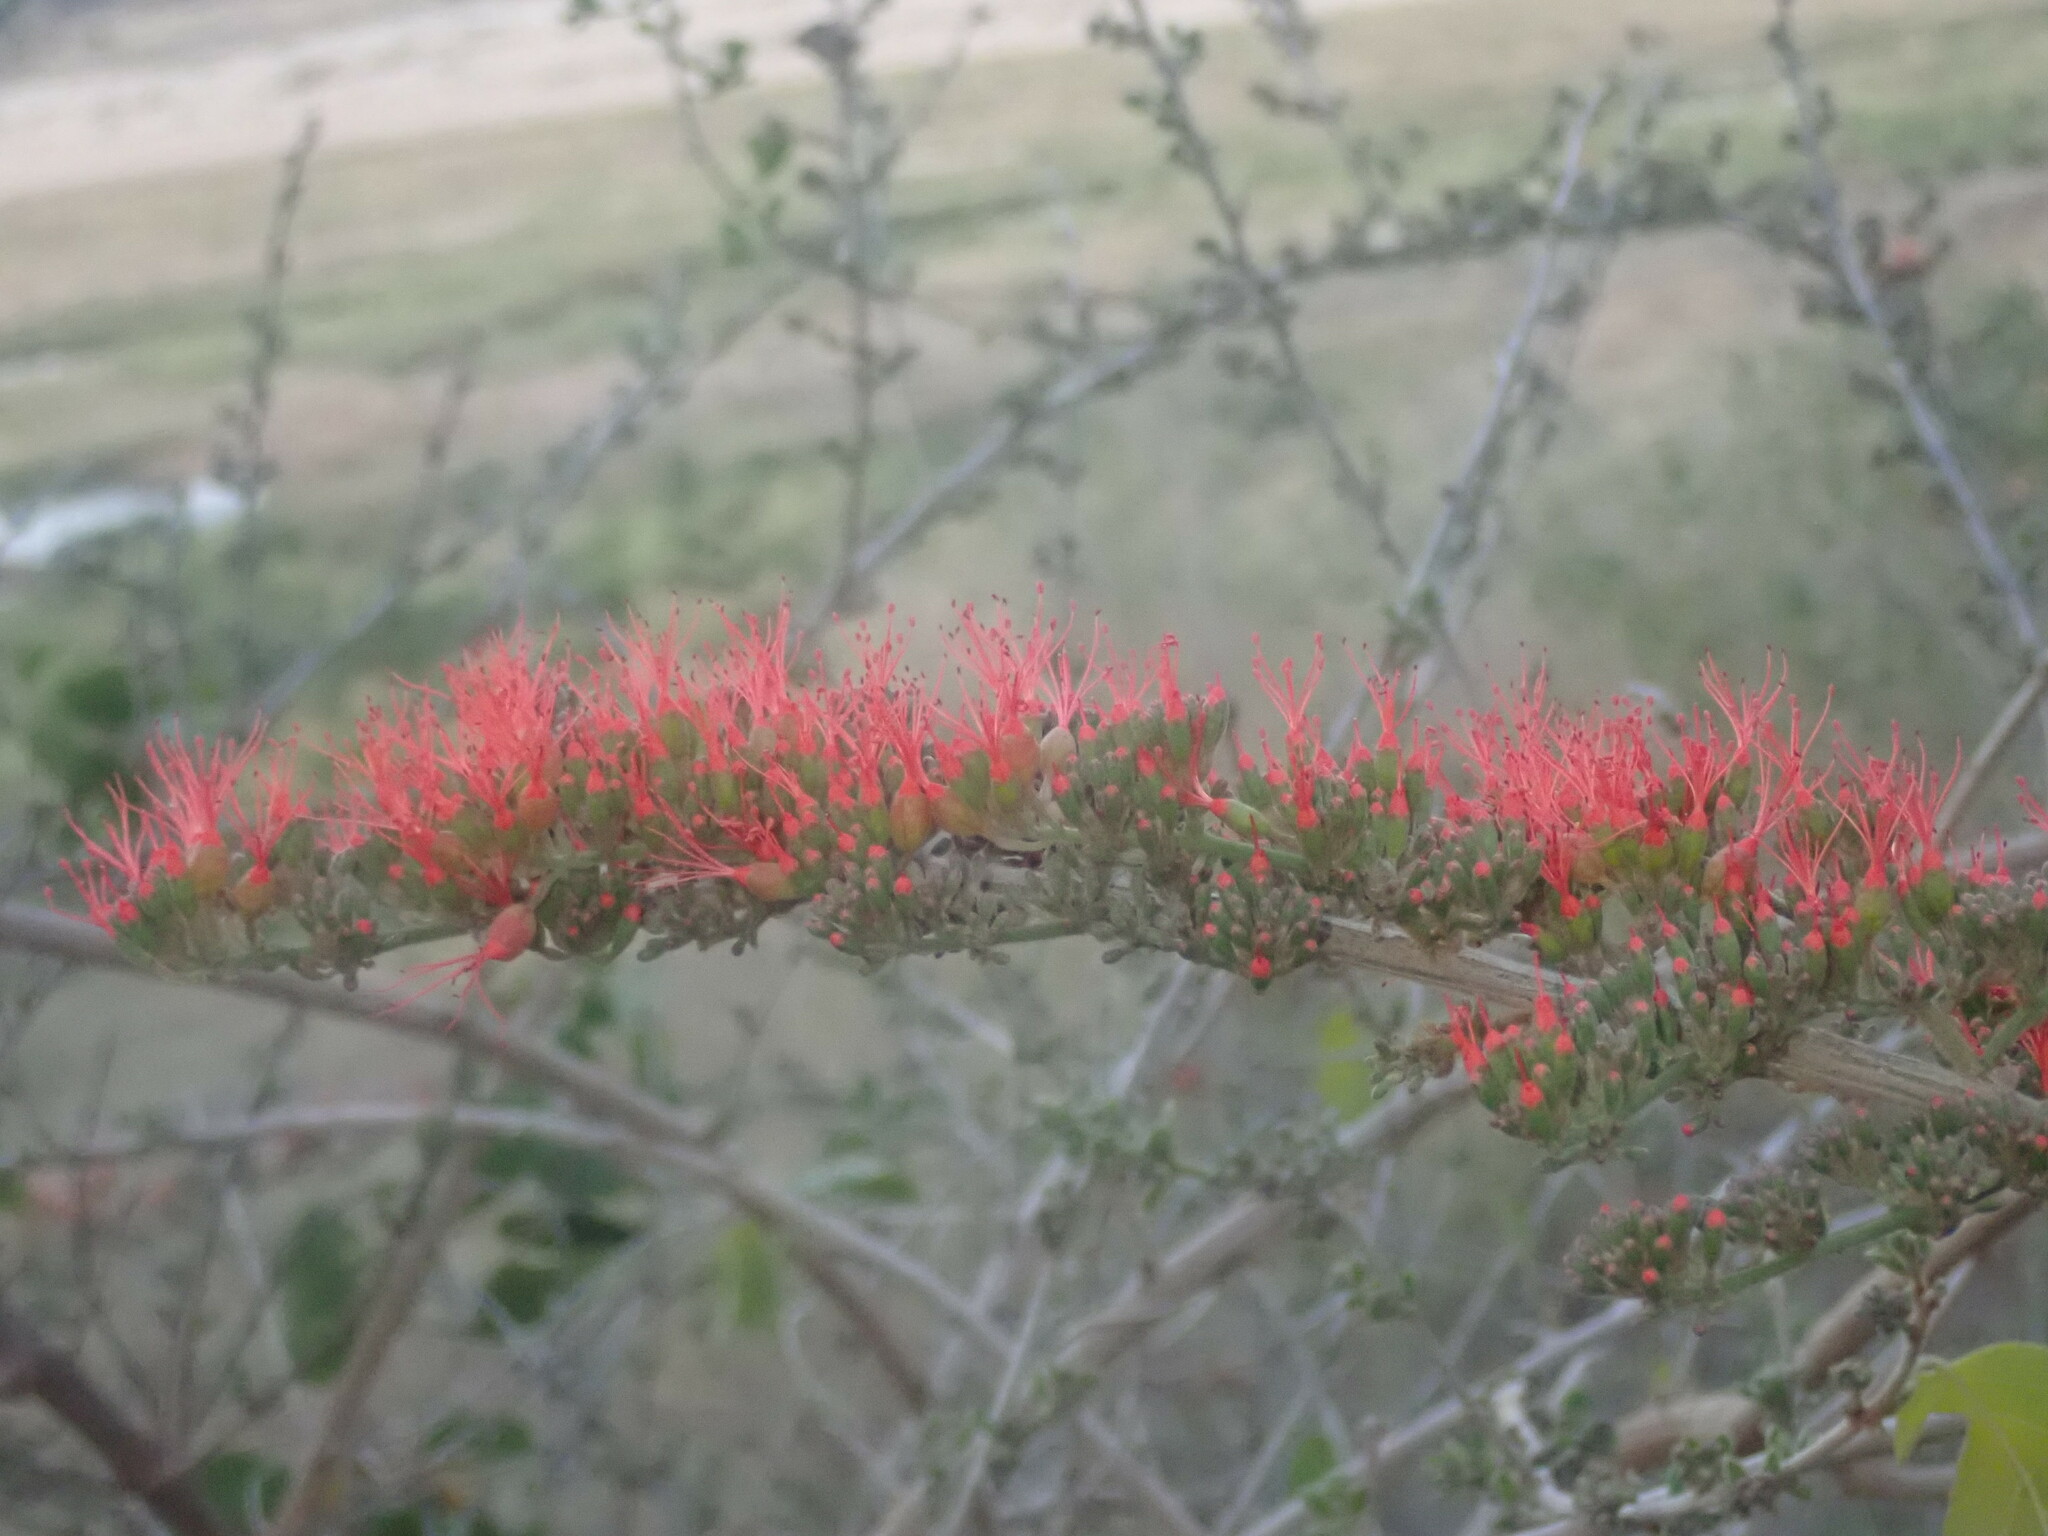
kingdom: Plantae
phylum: Tracheophyta
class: Magnoliopsida
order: Myrtales
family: Combretaceae
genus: Combretum
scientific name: Combretum microphyllum
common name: Burningbush
